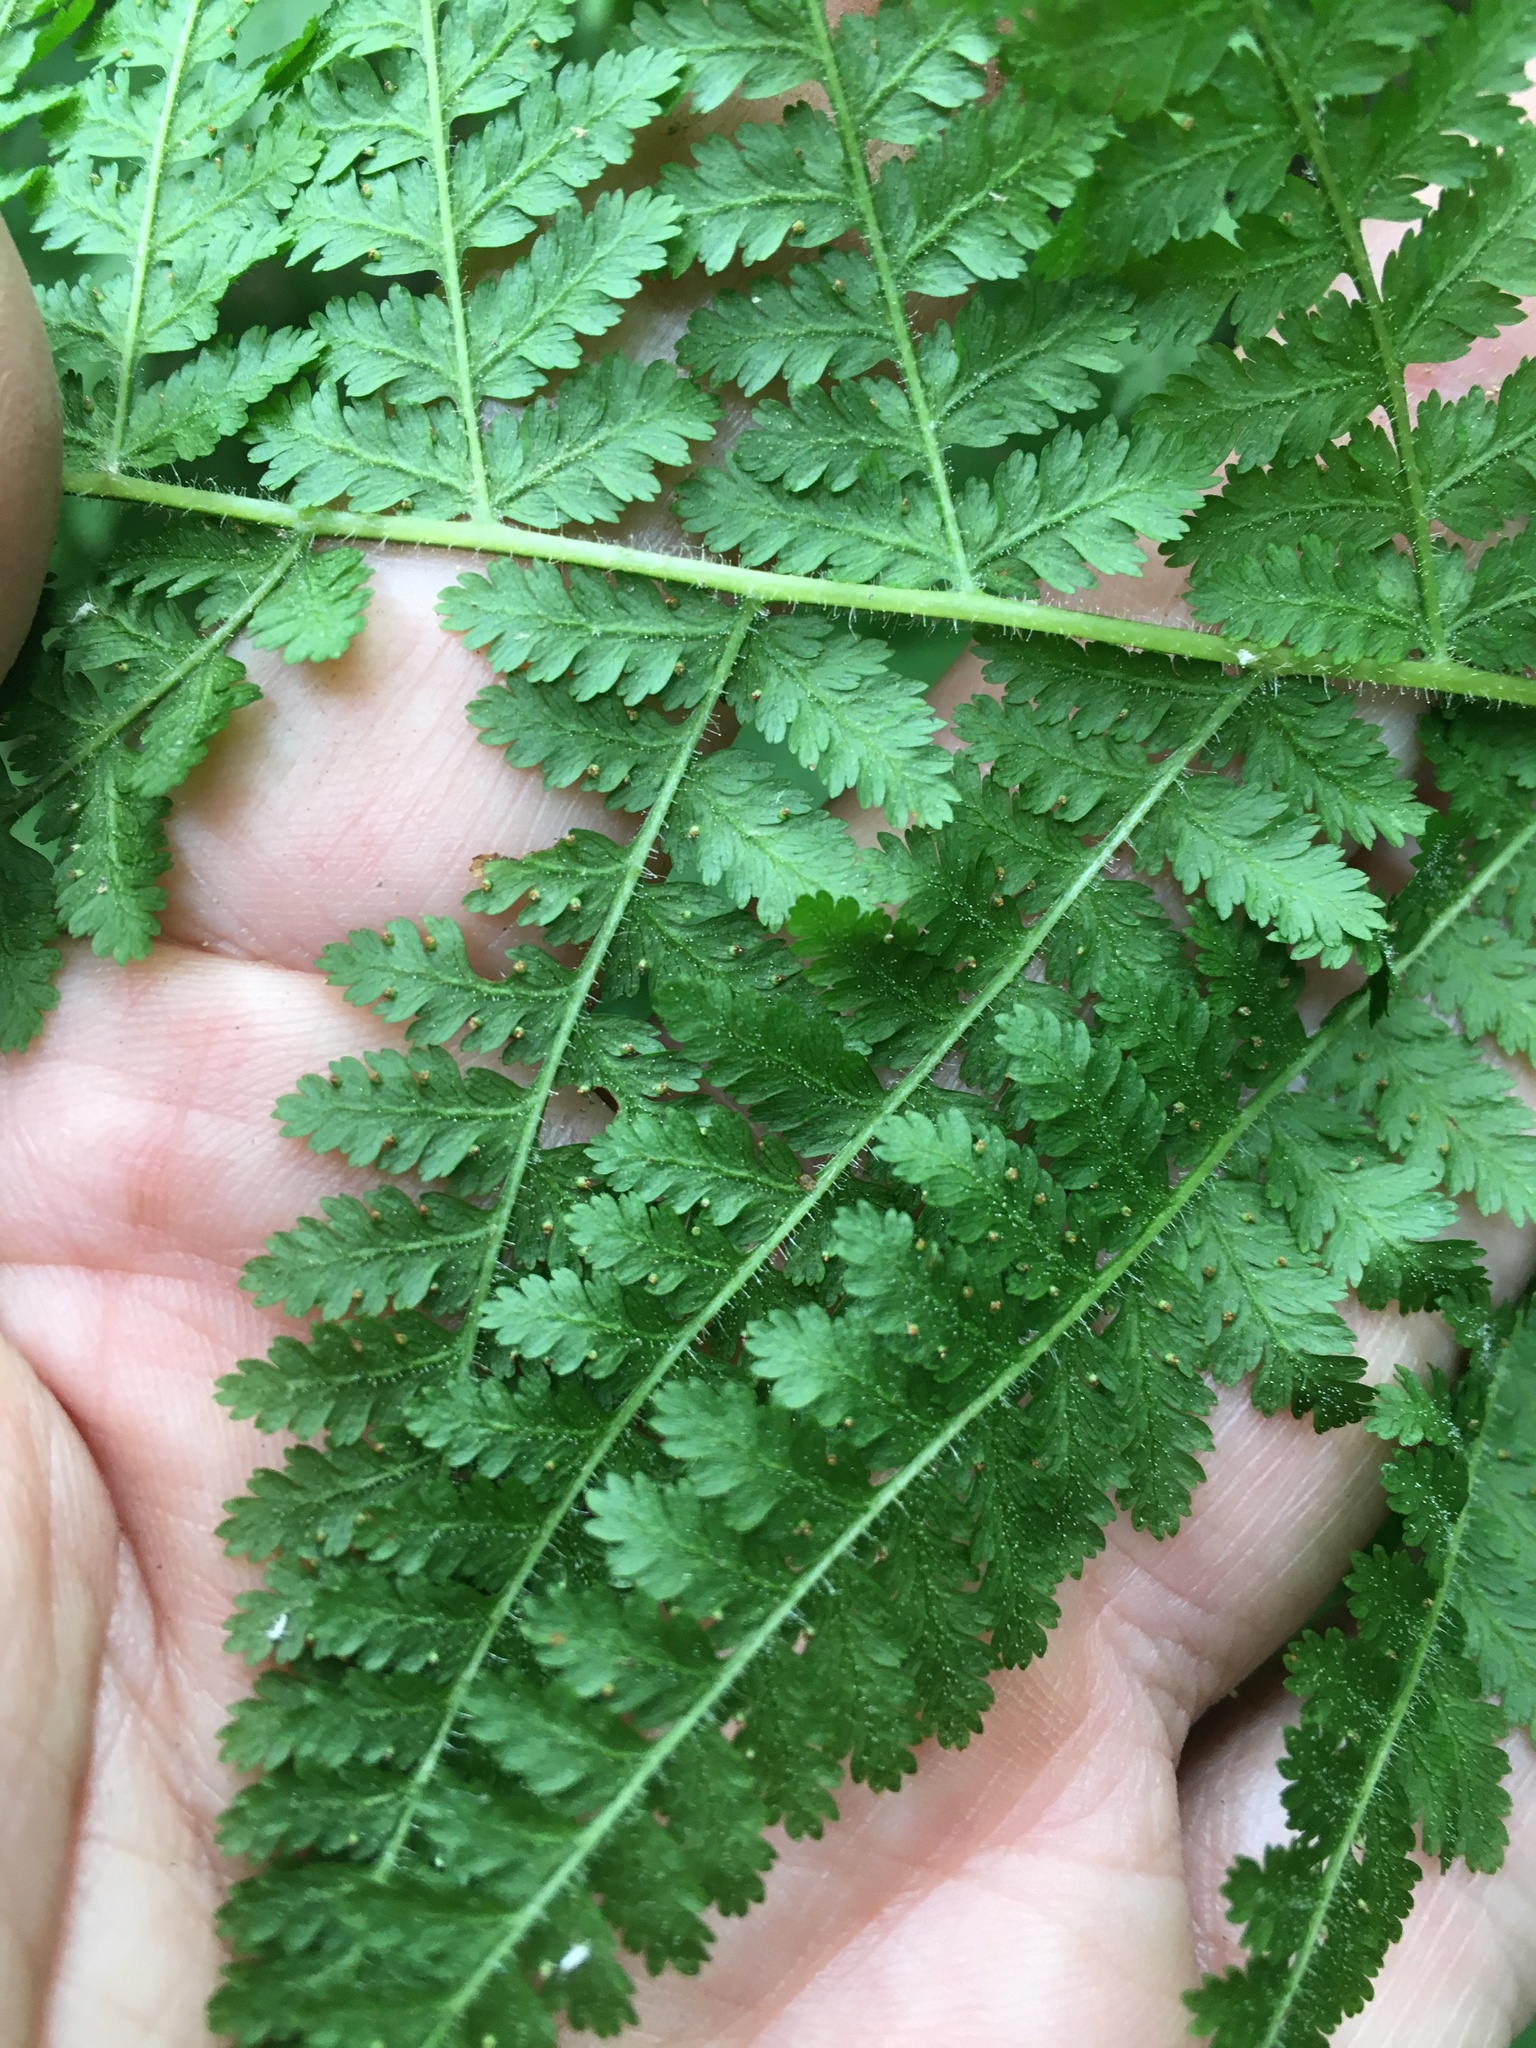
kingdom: Plantae
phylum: Tracheophyta
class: Polypodiopsida
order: Polypodiales
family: Dennstaedtiaceae
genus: Sitobolium
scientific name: Sitobolium punctilobum
